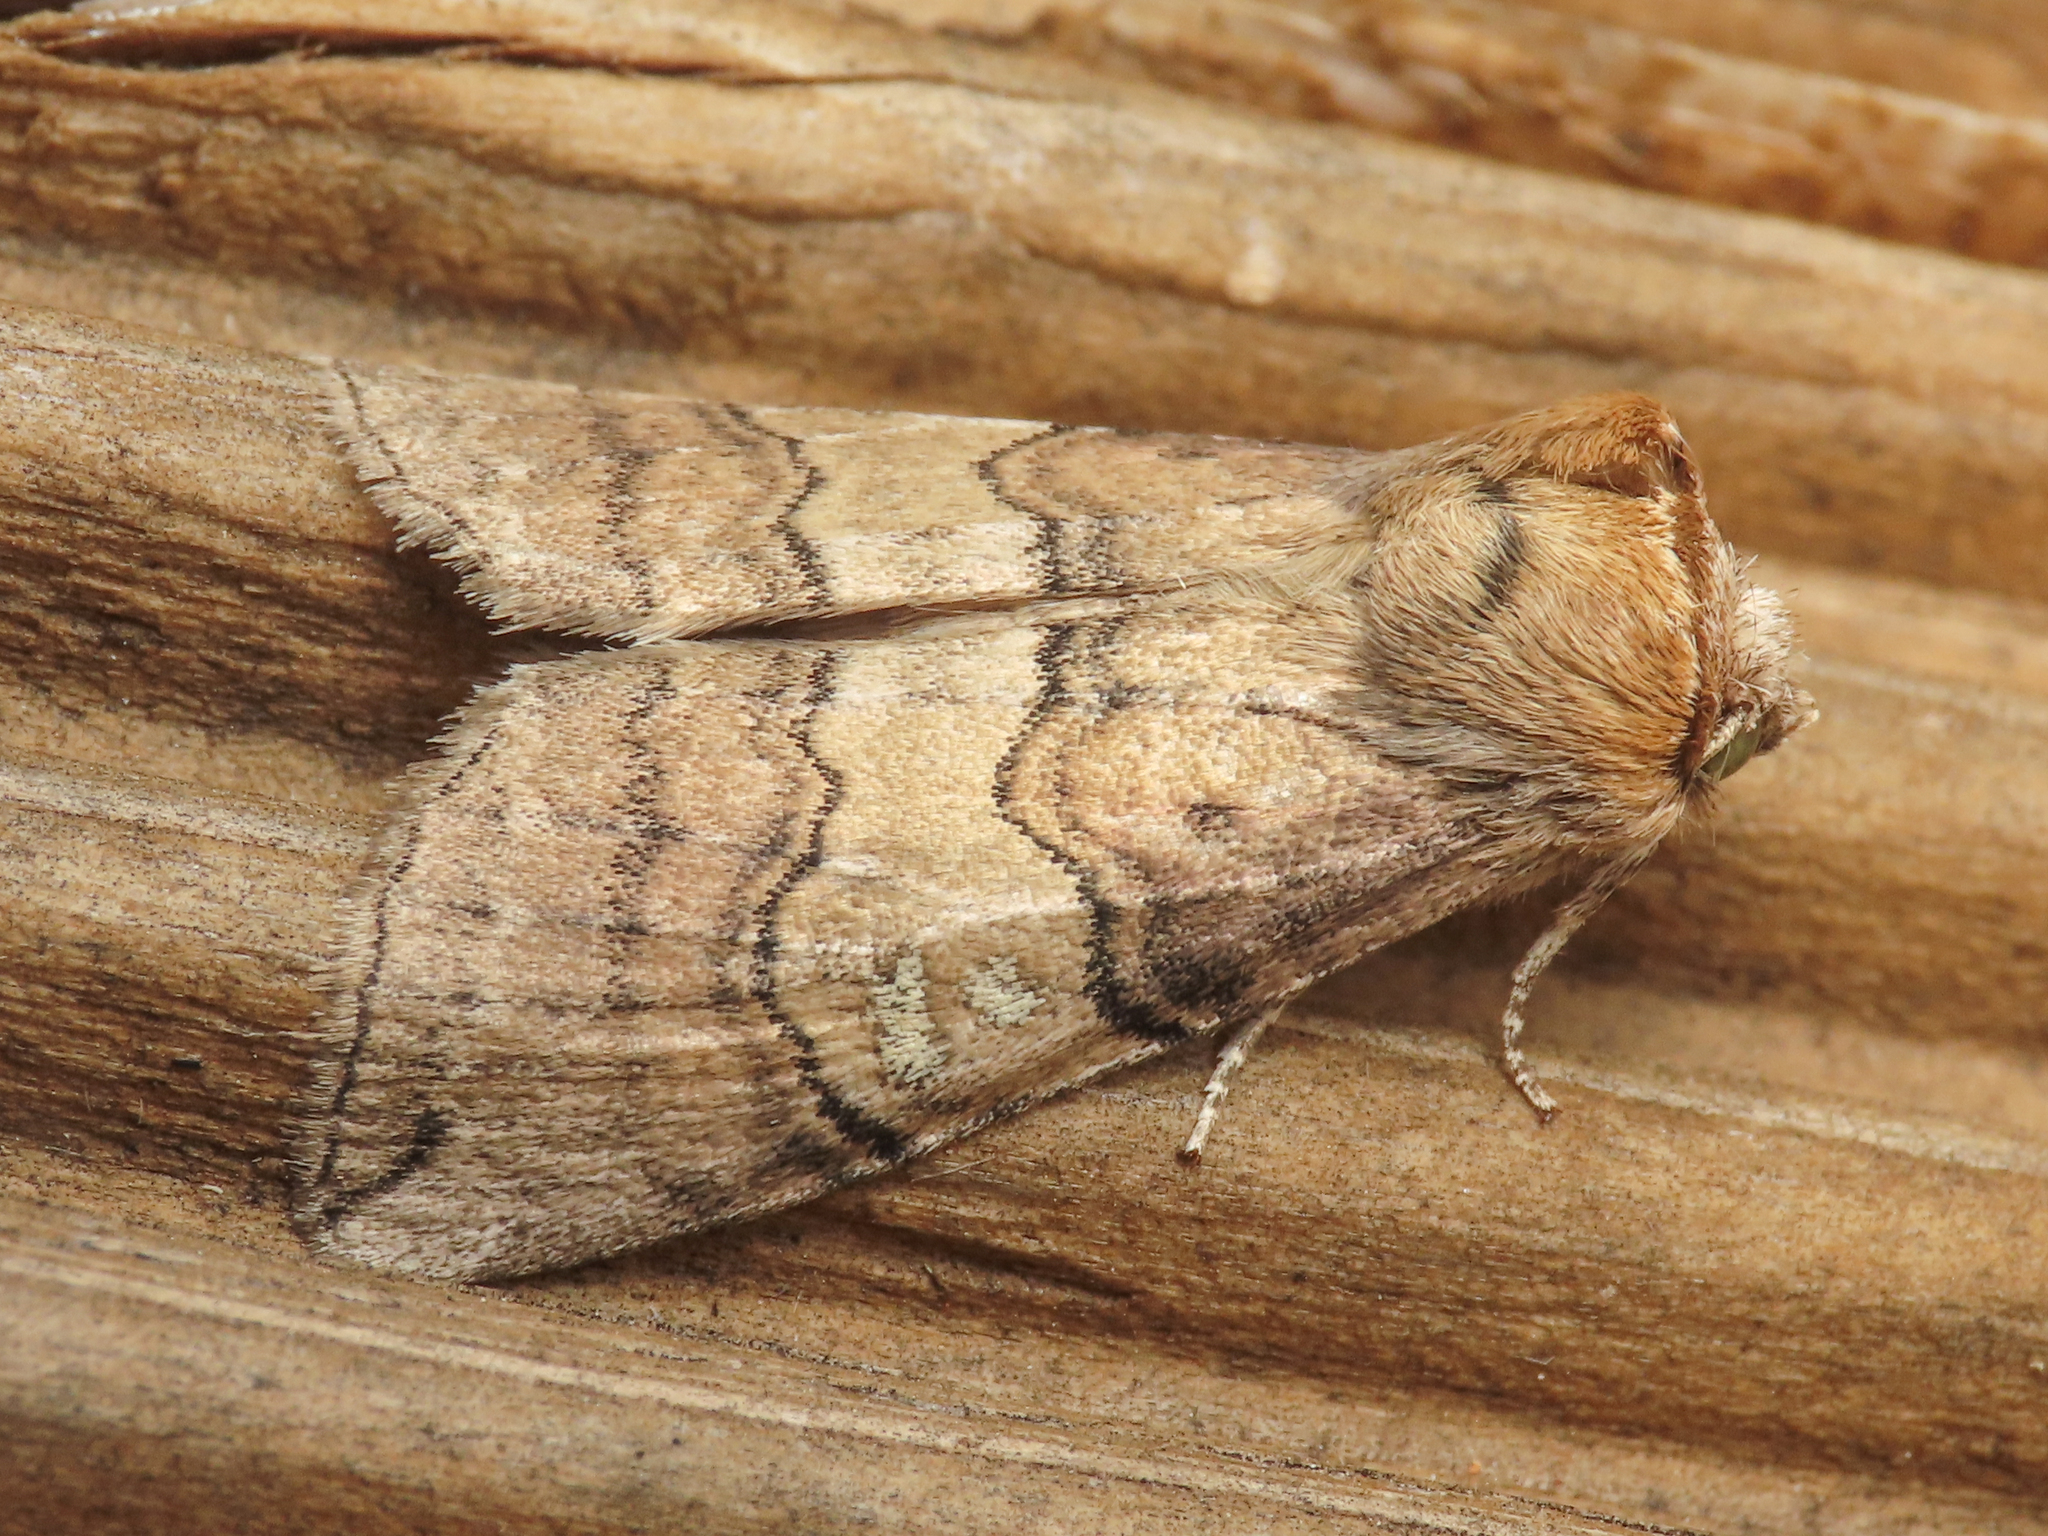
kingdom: Animalia
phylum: Arthropoda
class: Insecta
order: Lepidoptera
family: Drepanidae
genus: Tethea
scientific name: Tethea or
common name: Poplar lutestring
